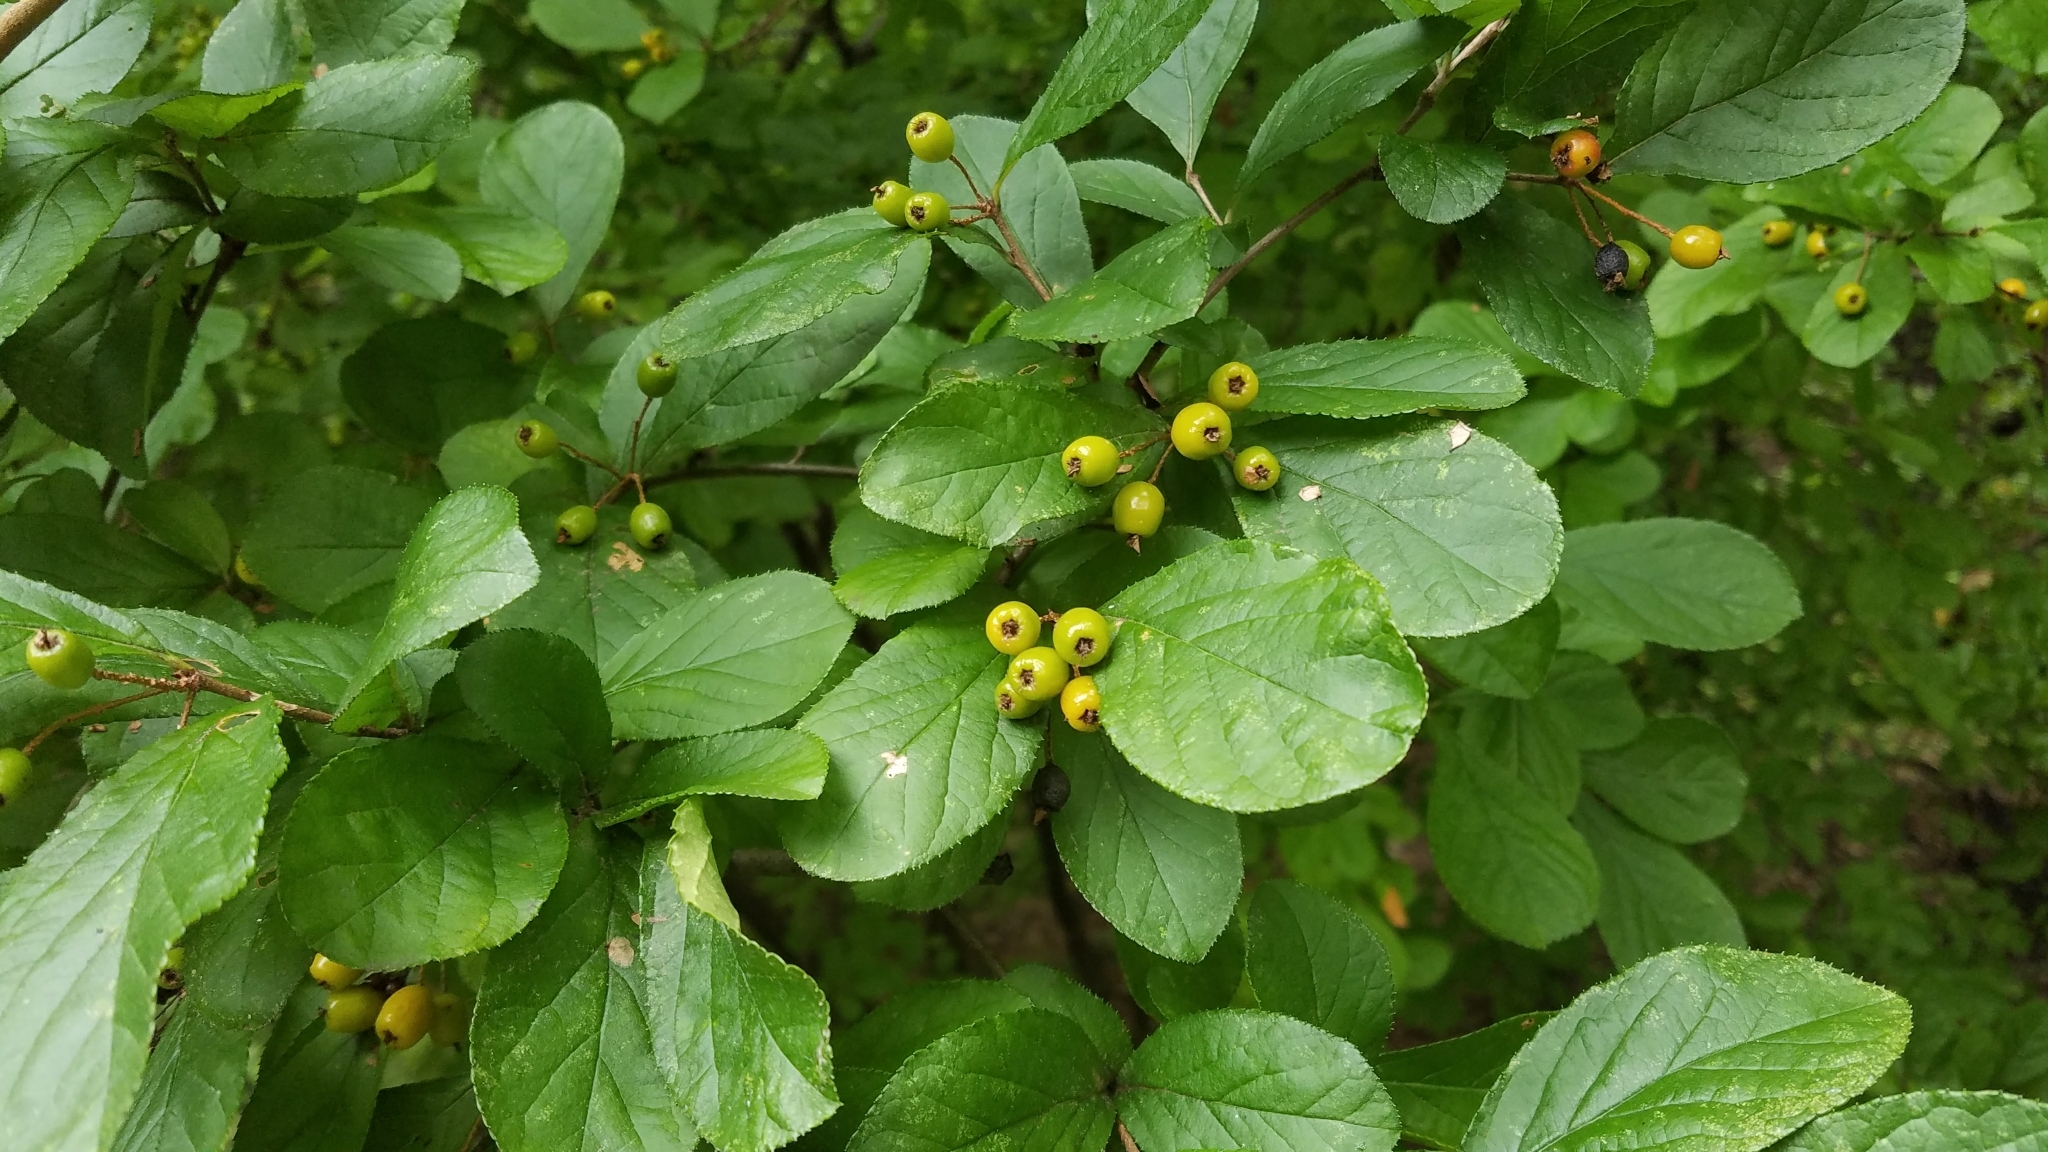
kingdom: Plantae
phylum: Tracheophyta
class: Magnoliopsida
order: Rosales
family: Rosaceae
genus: Pourthiaea
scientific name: Pourthiaea villosa
